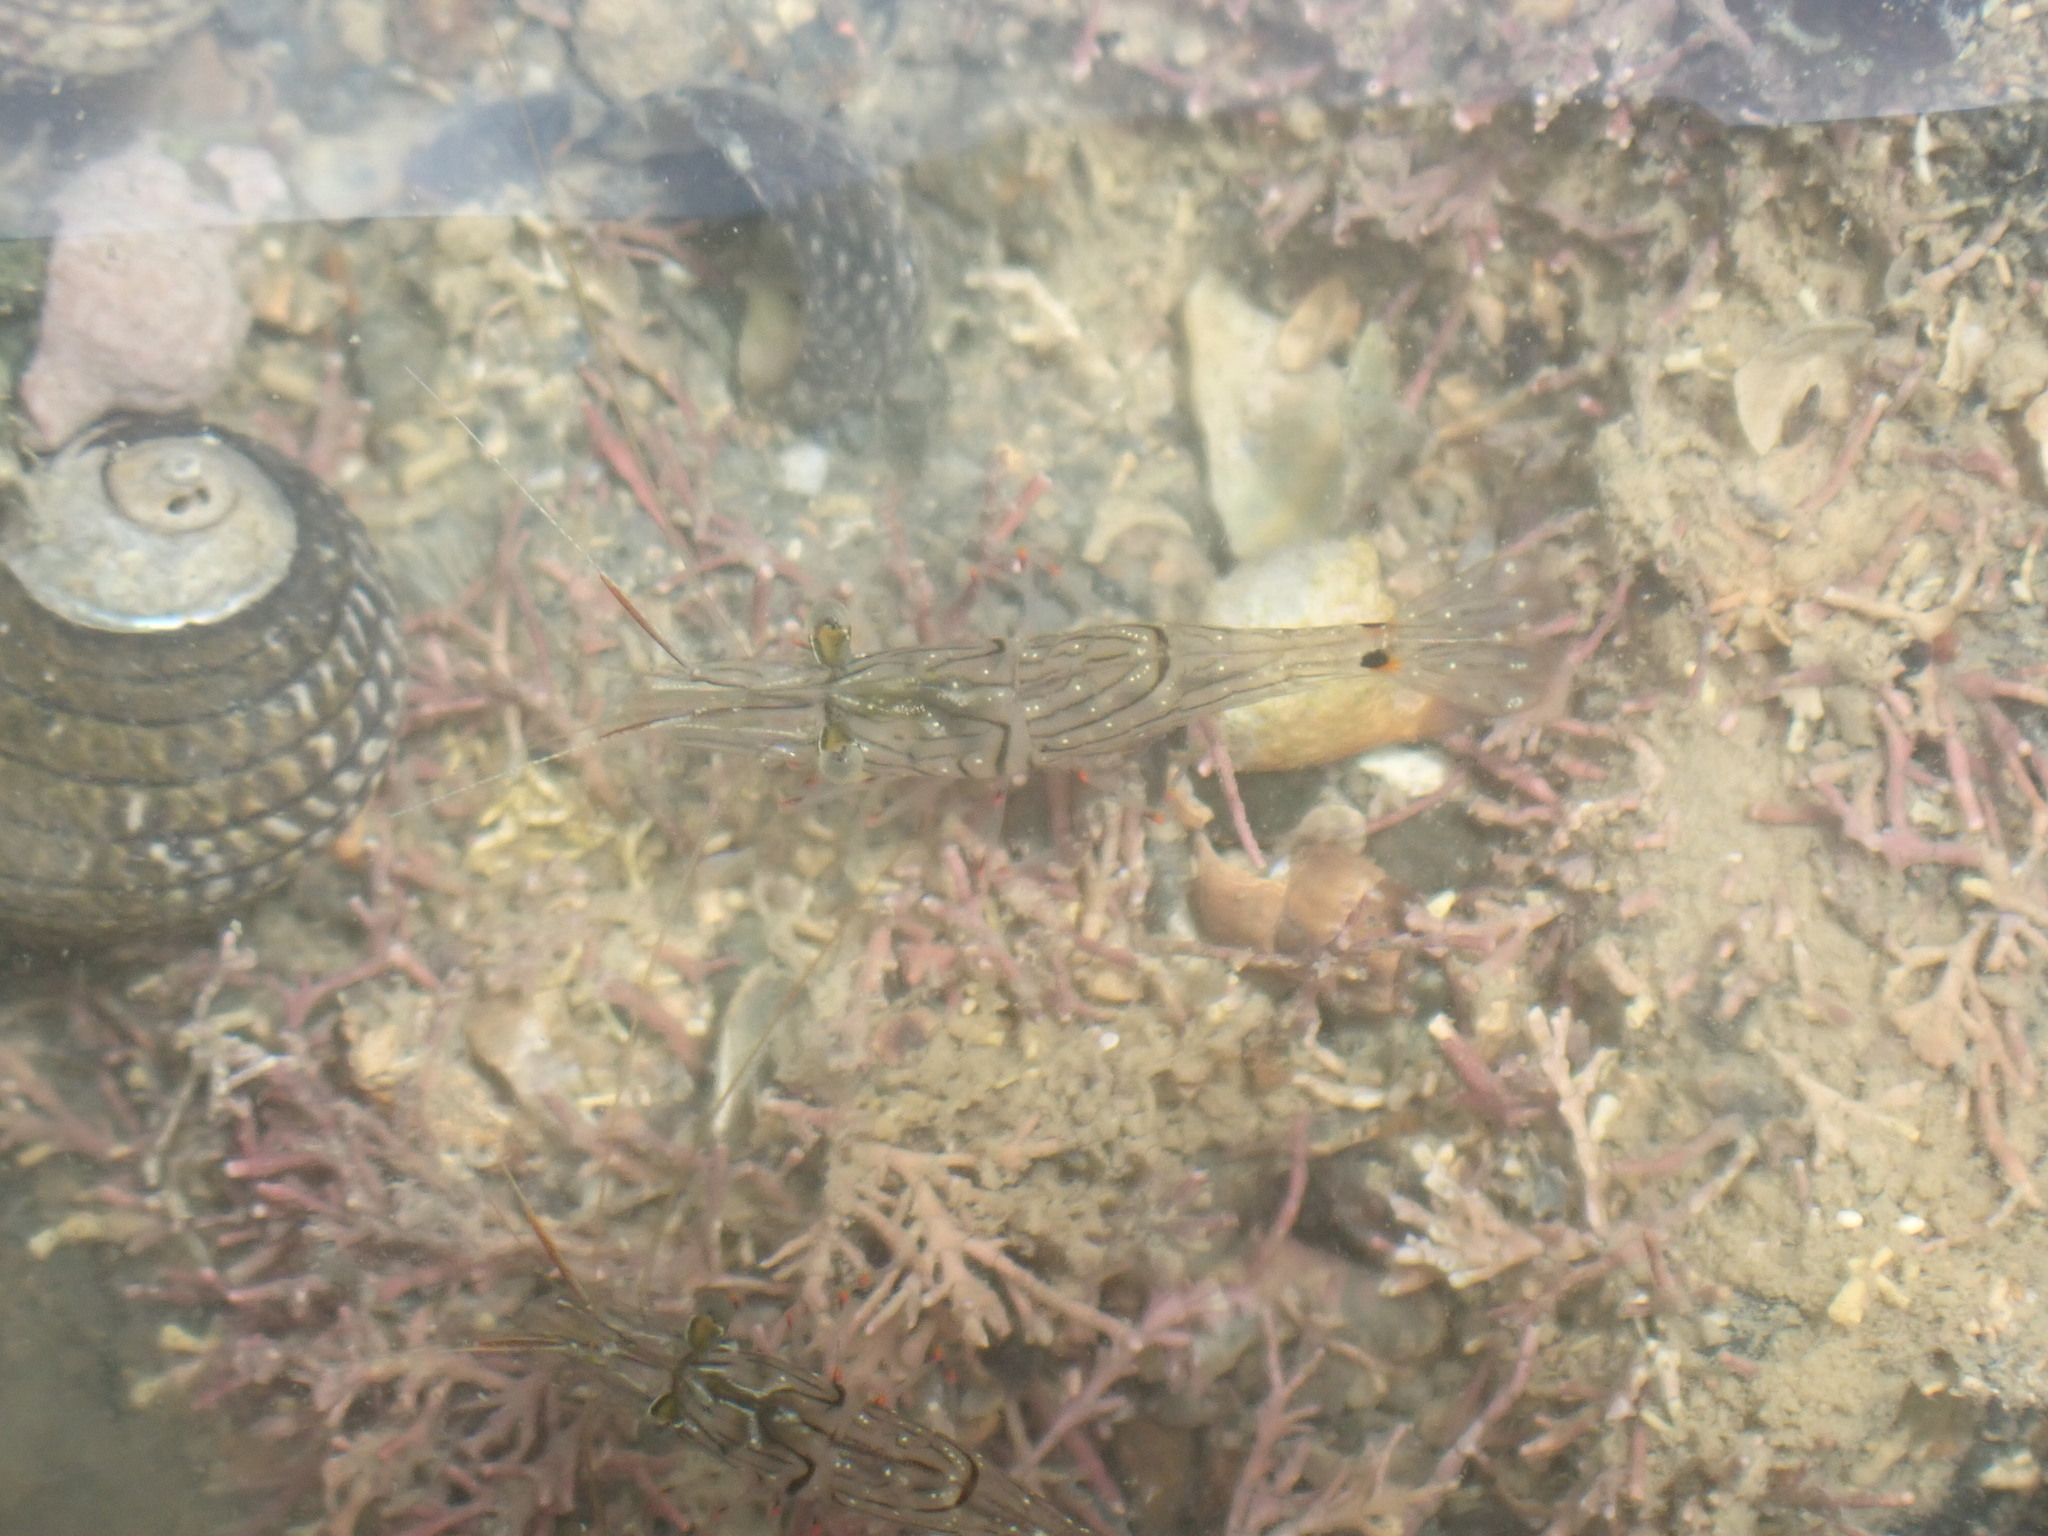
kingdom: Animalia
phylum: Arthropoda
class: Malacostraca
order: Decapoda
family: Palaemonidae
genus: Palaemon
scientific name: Palaemon affinis
